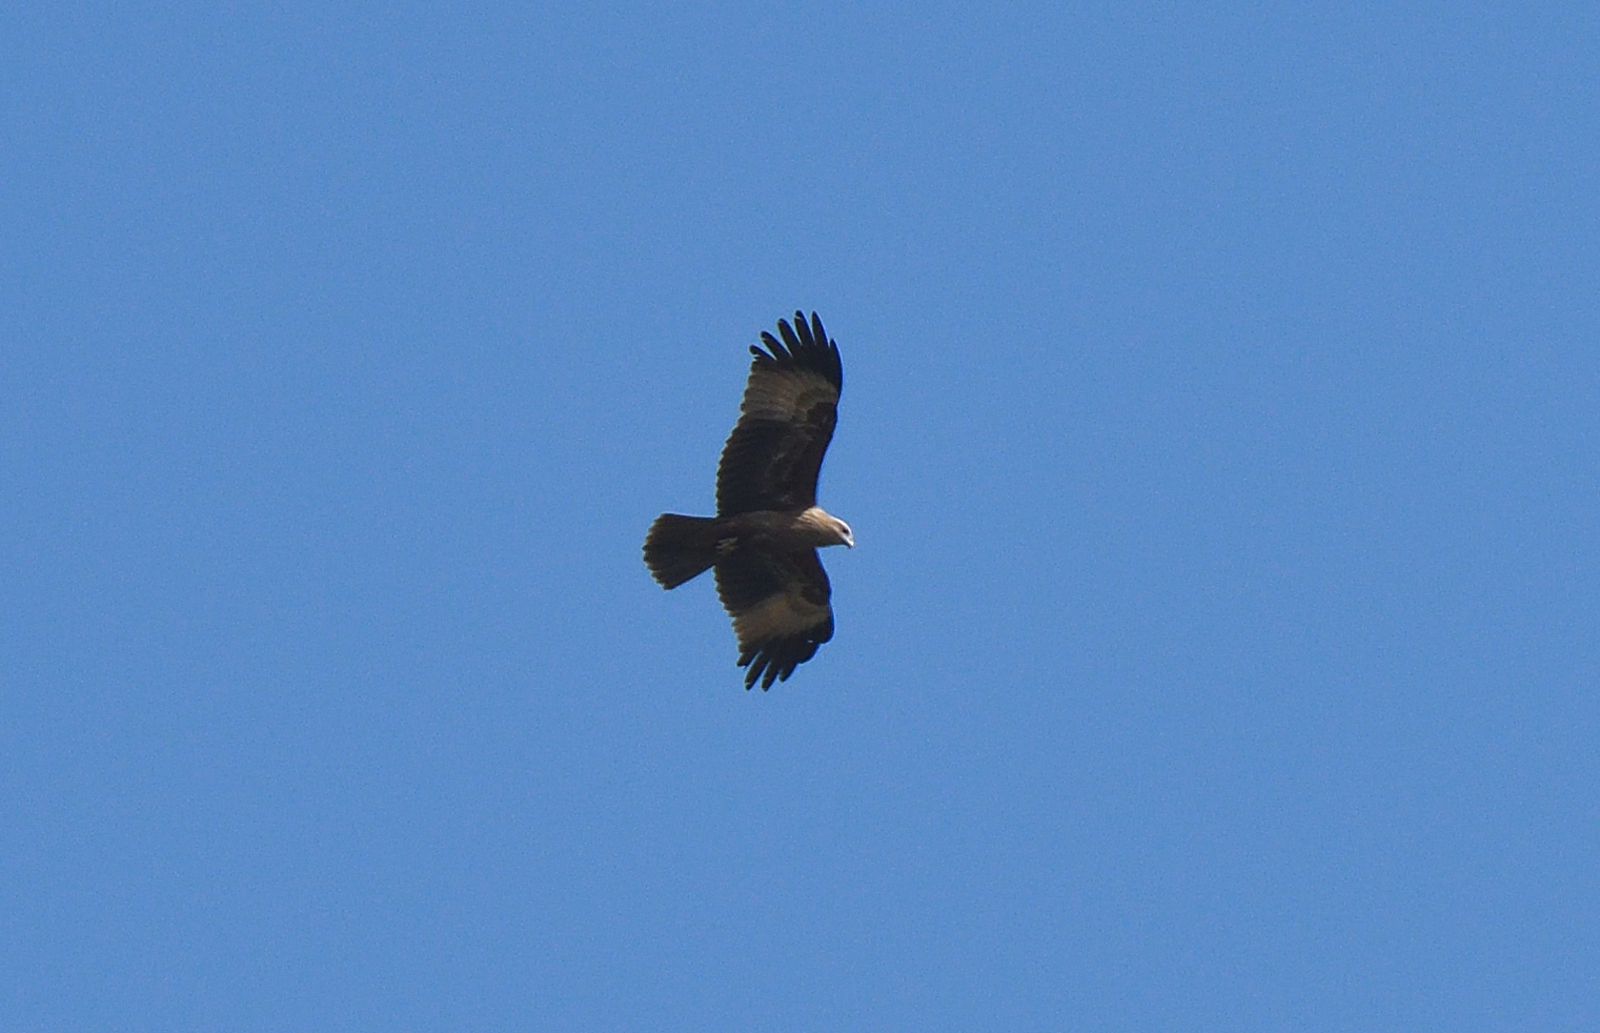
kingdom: Animalia
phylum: Chordata
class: Aves
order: Accipitriformes
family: Accipitridae
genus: Haliastur
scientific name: Haliastur indus
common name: Brahminy kite
